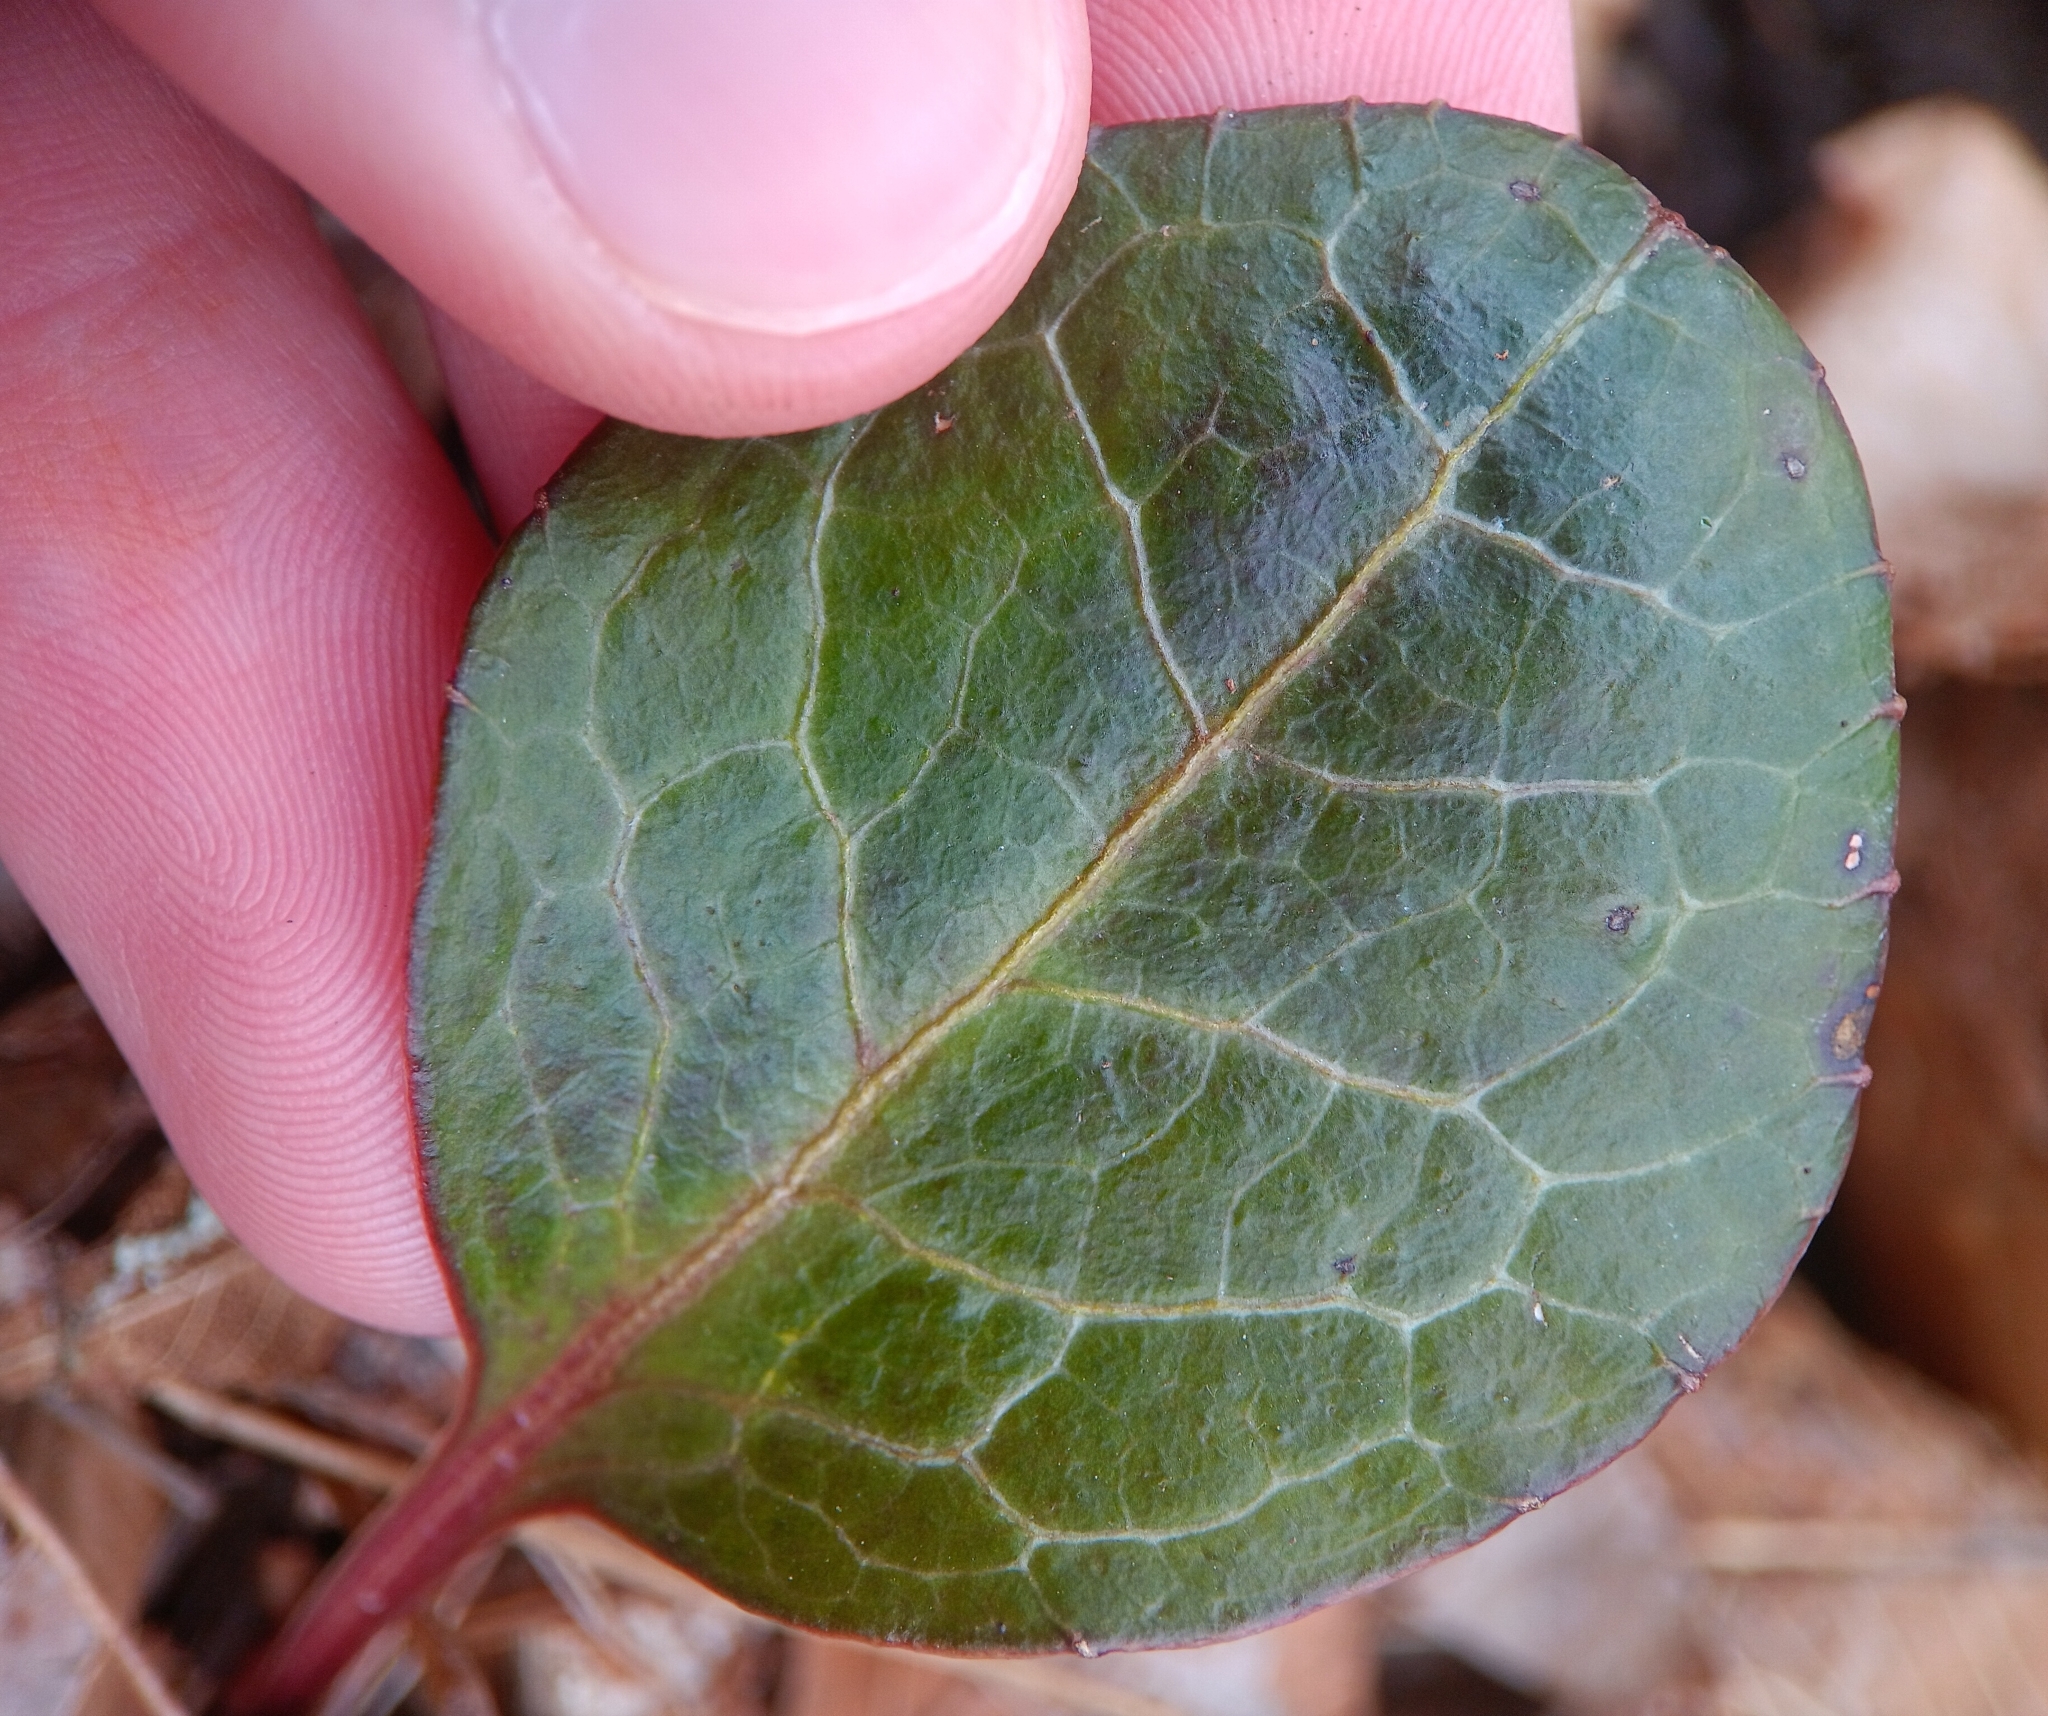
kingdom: Plantae
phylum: Tracheophyta
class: Magnoliopsida
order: Ericales
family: Ericaceae
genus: Pyrola
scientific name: Pyrola americana
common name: American wintergreen
